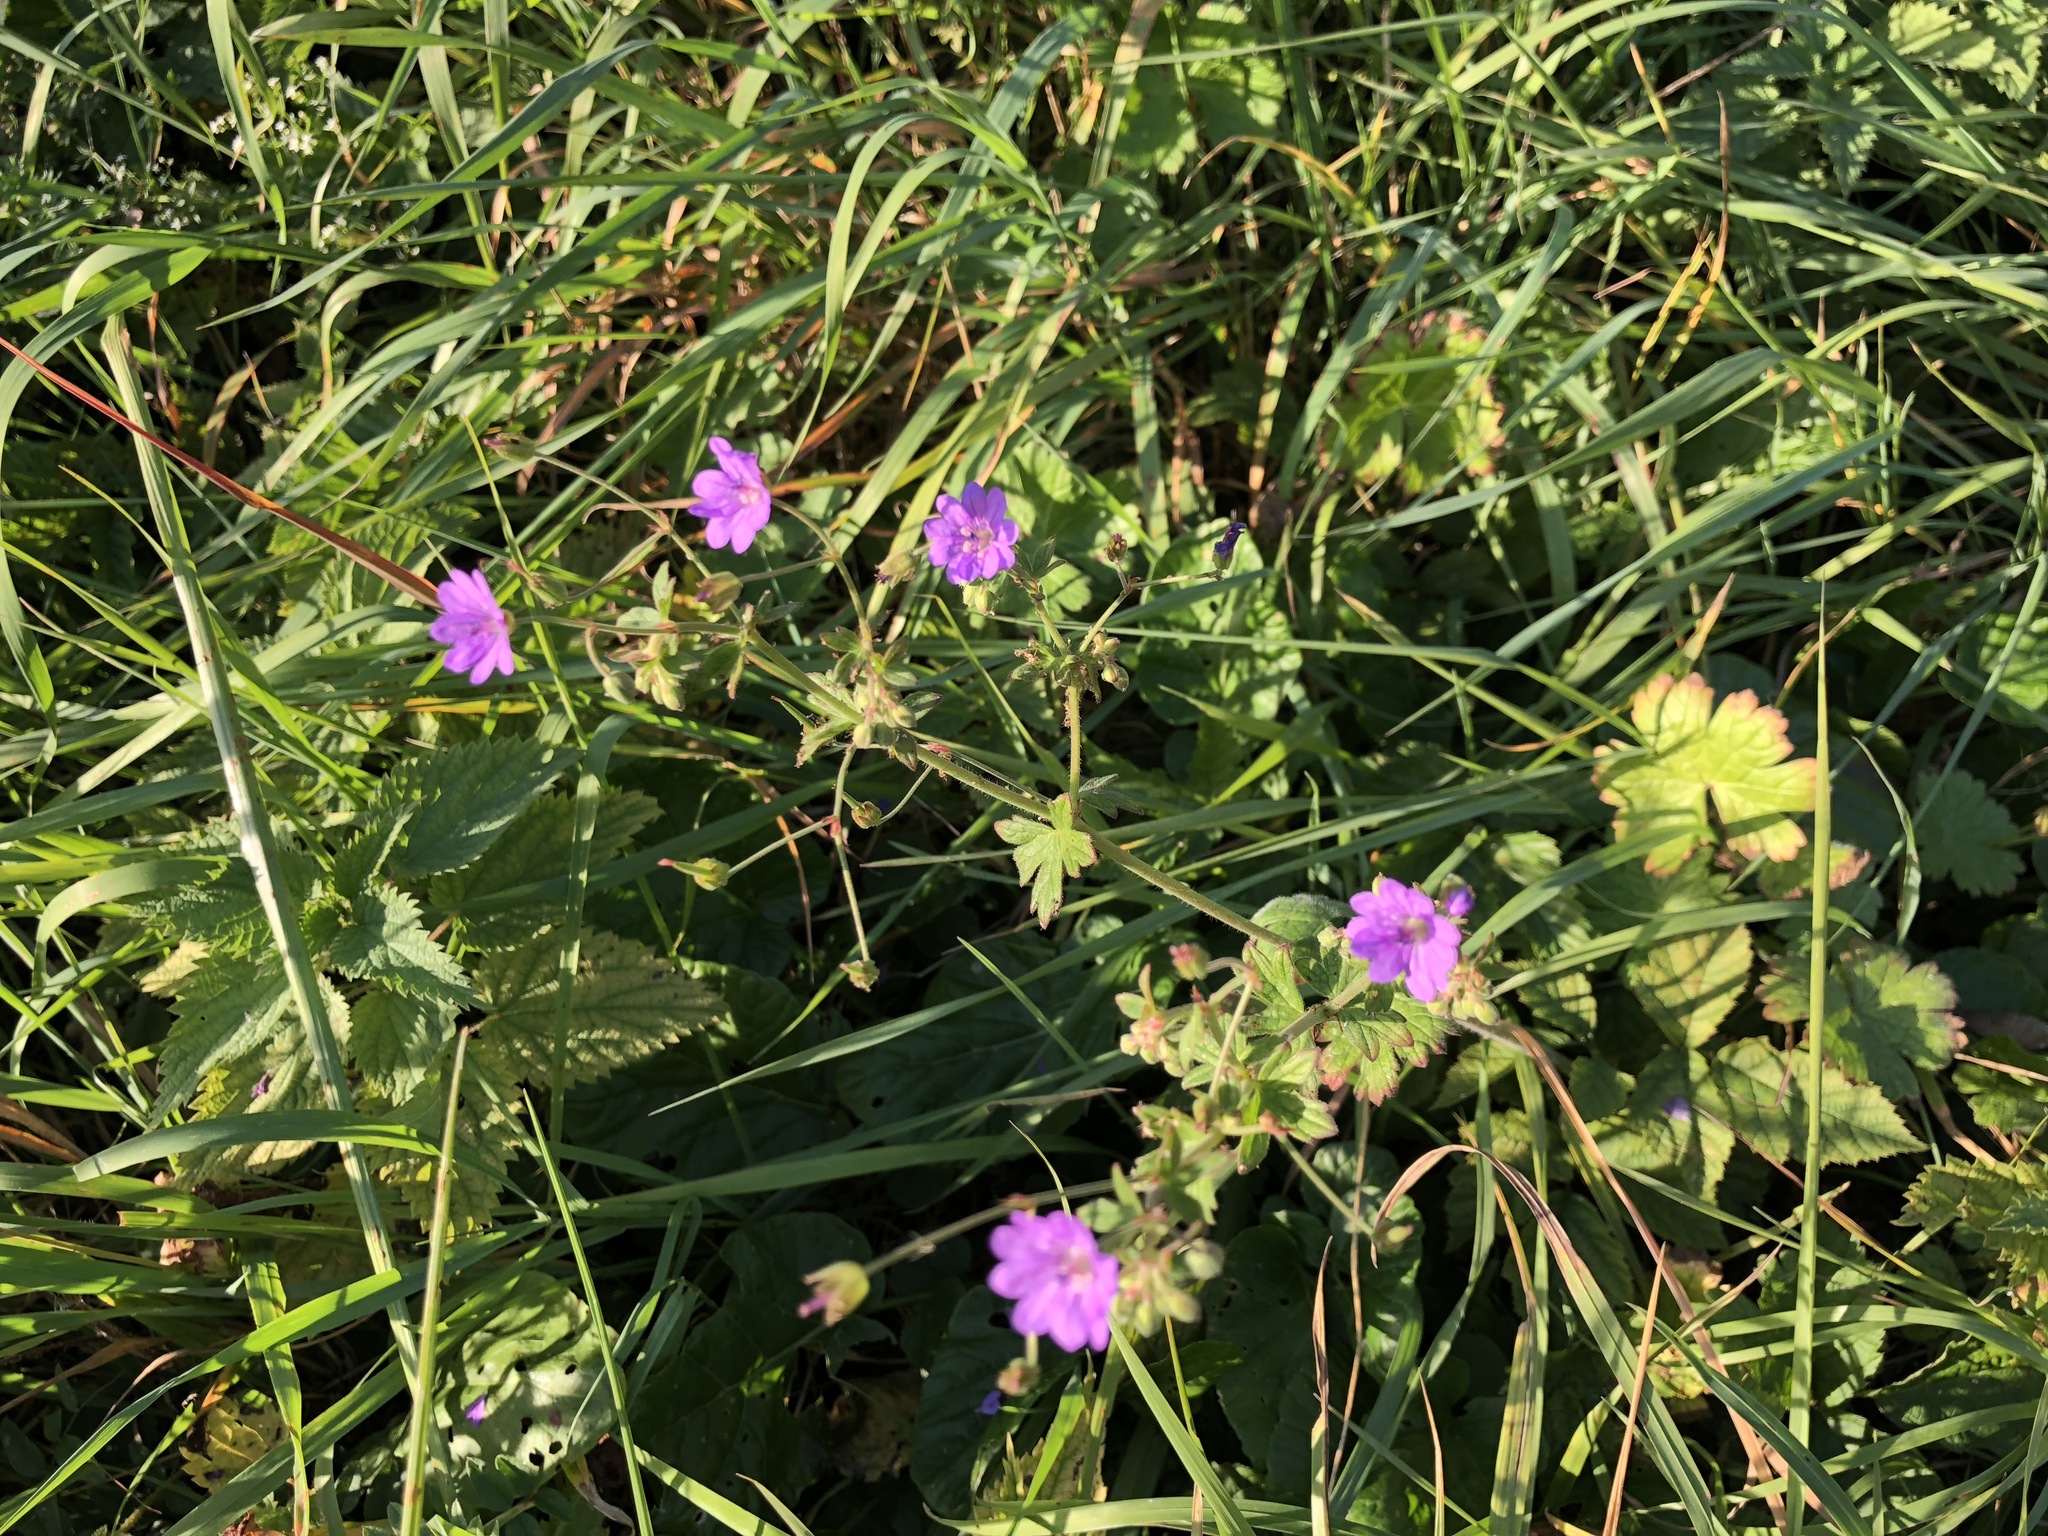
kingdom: Plantae
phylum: Tracheophyta
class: Magnoliopsida
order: Geraniales
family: Geraniaceae
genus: Geranium
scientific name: Geranium pyrenaicum
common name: Hedgerow crane's-bill
